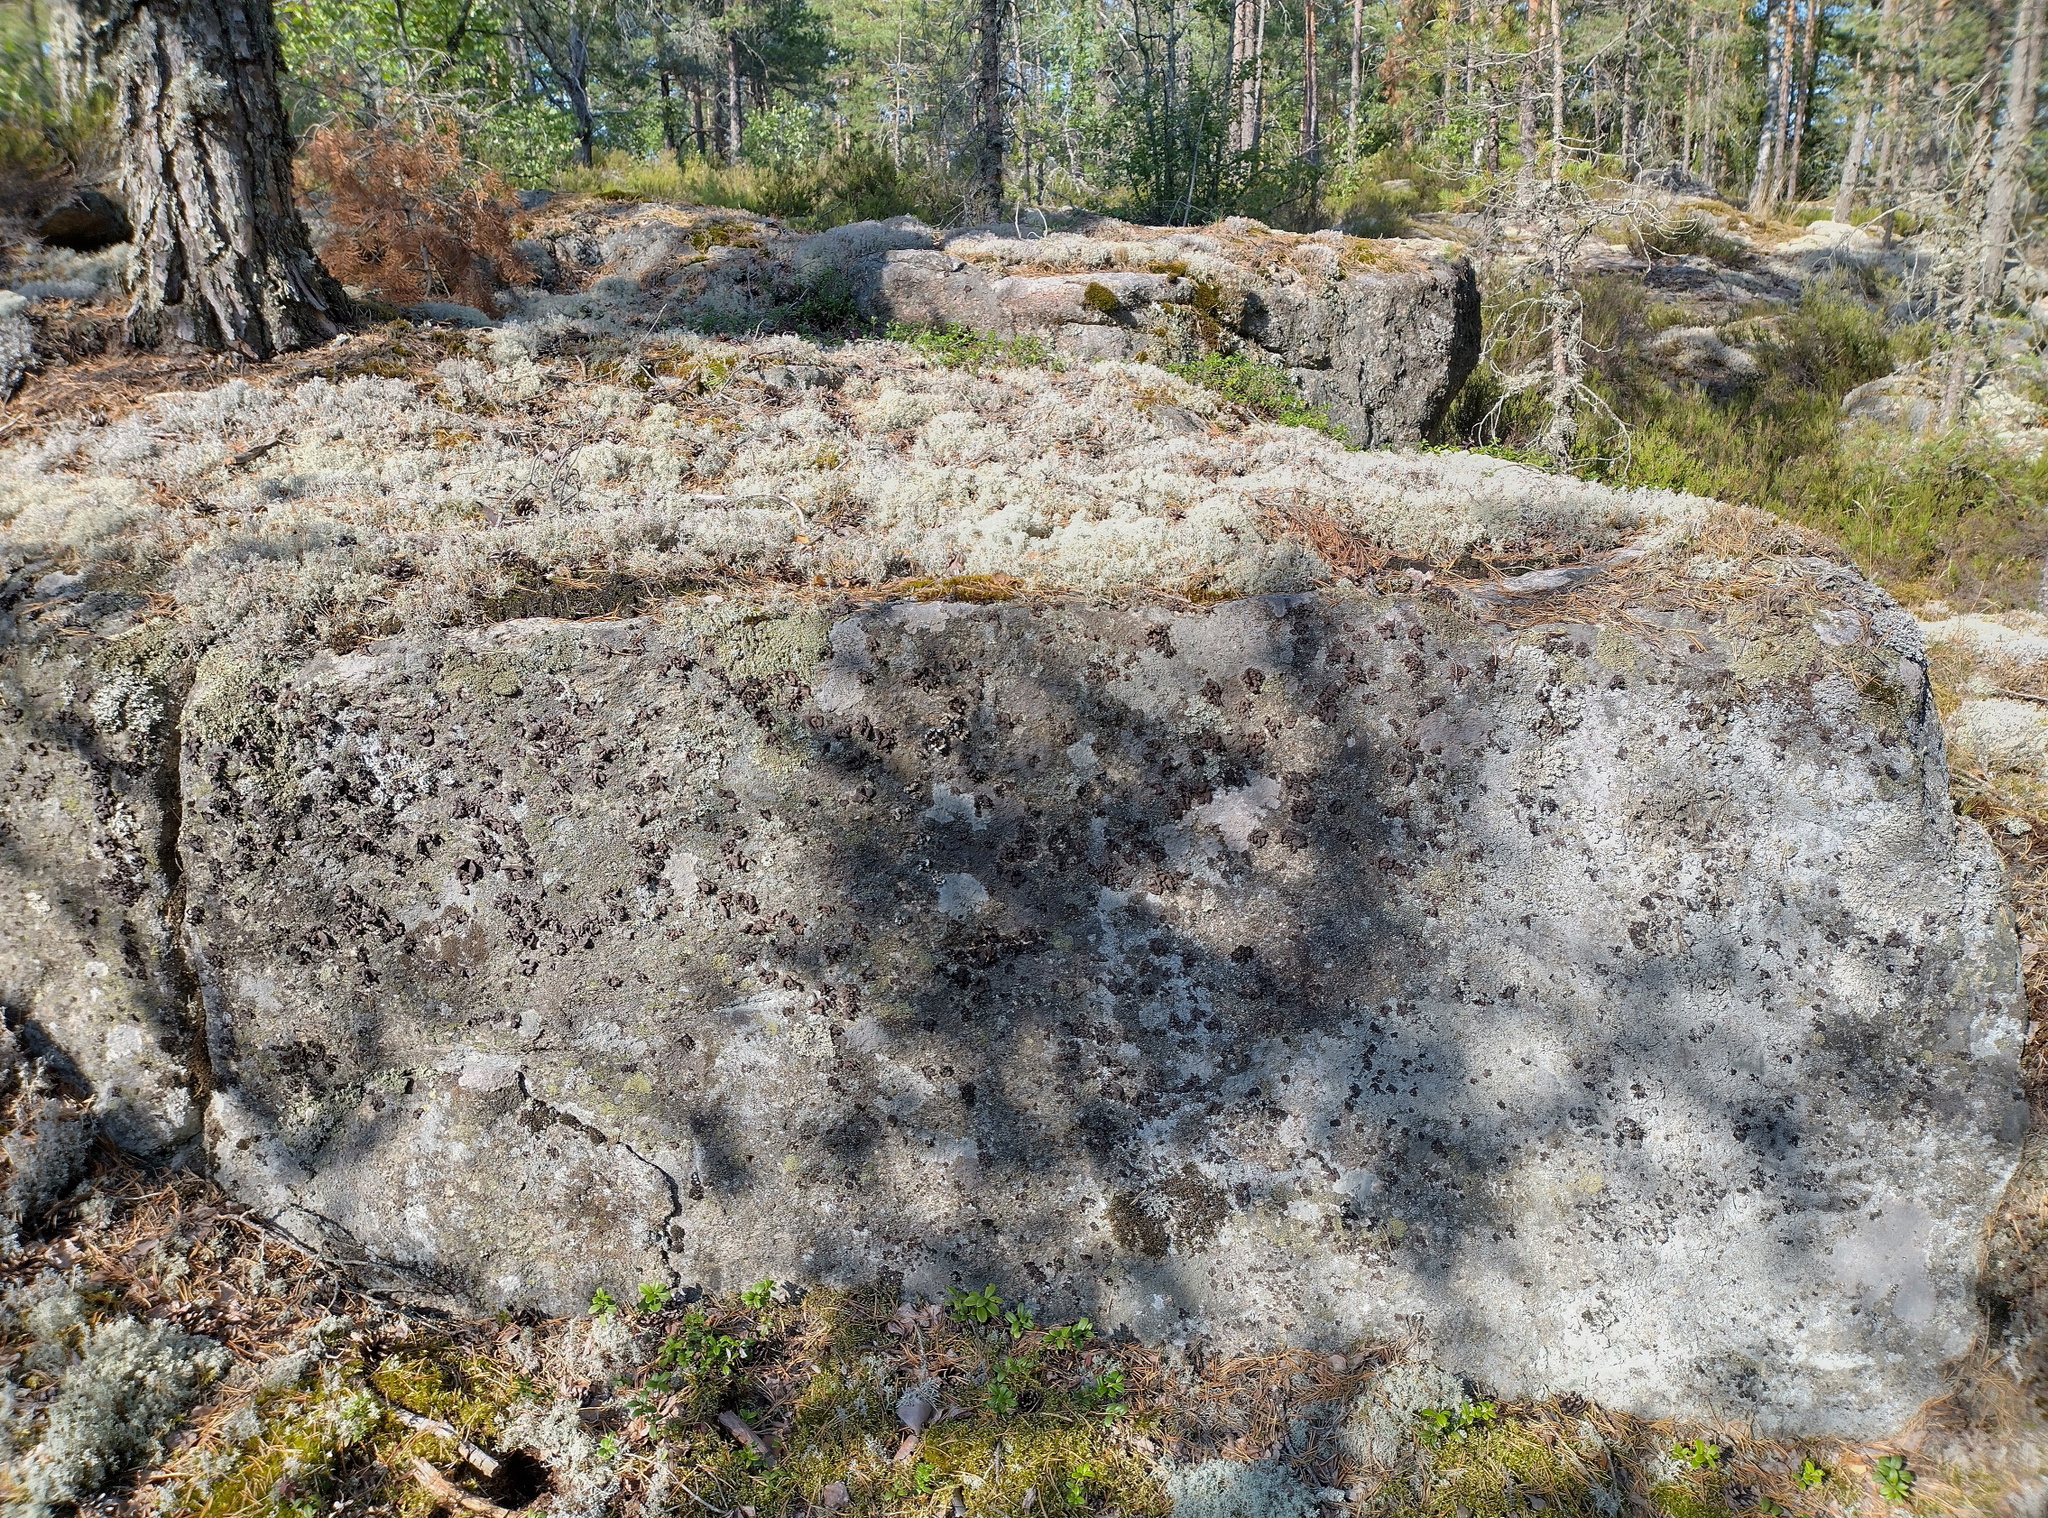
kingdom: Fungi
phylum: Ascomycota
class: Lecanoromycetes
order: Umbilicariales
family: Umbilicariaceae
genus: Umbilicaria
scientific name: Umbilicaria polyrrhiza
